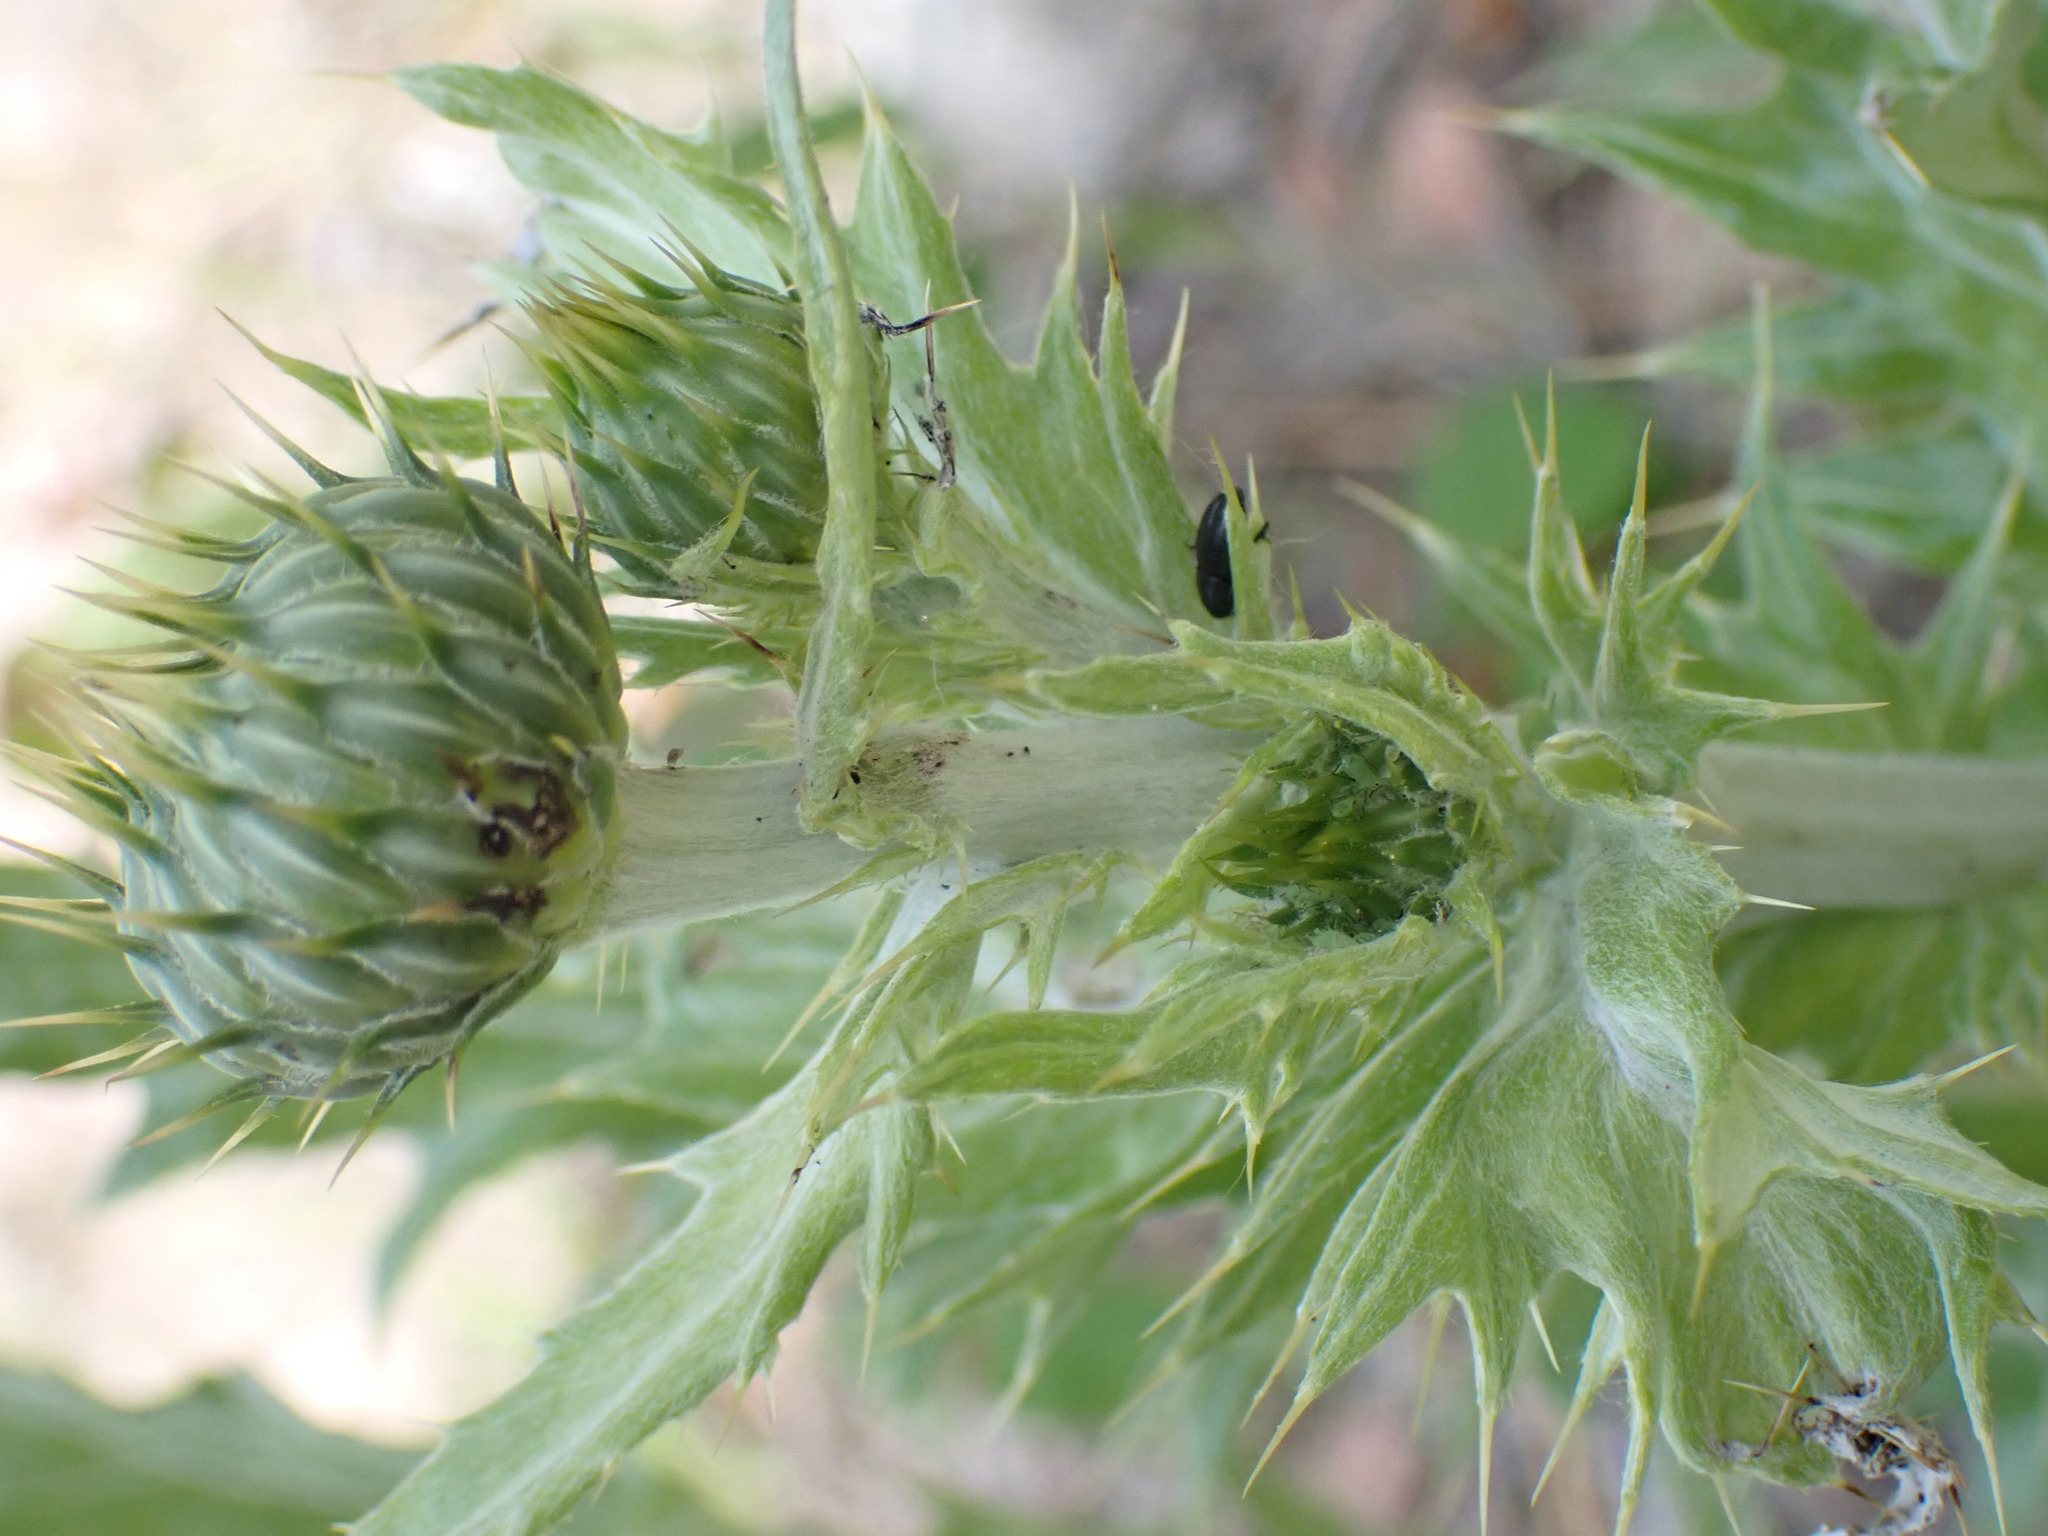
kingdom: Plantae
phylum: Tracheophyta
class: Magnoliopsida
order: Asterales
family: Asteraceae
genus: Onopordum
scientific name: Onopordum acanthium
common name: Scotch thistle
